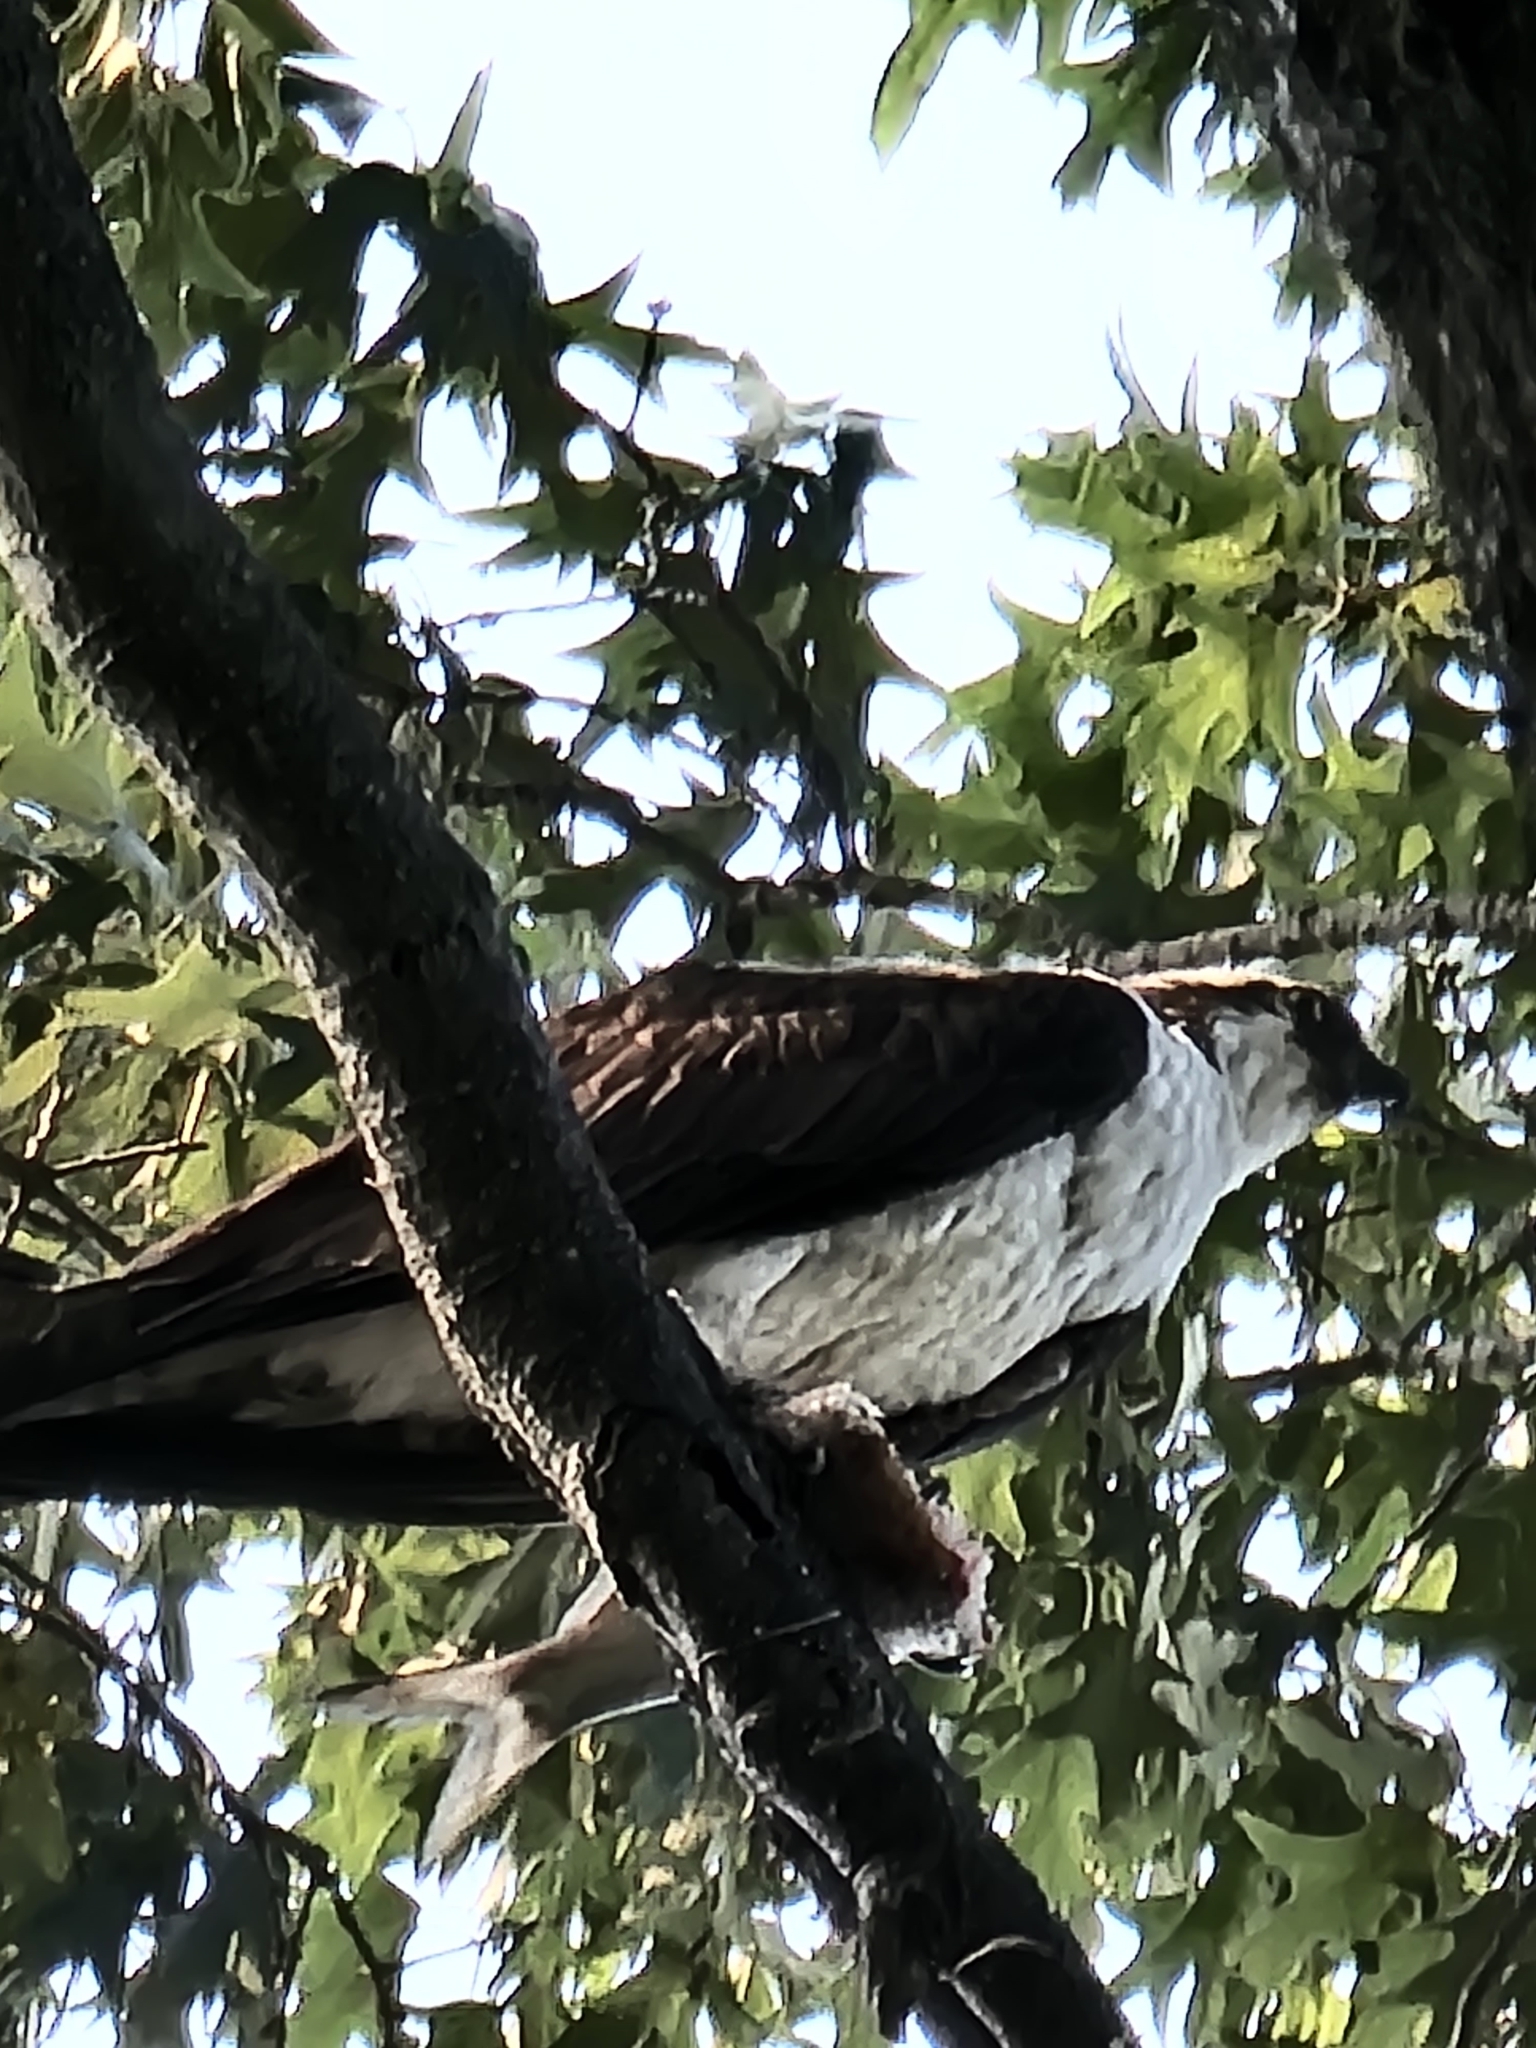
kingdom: Animalia
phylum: Chordata
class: Aves
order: Accipitriformes
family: Pandionidae
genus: Pandion
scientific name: Pandion haliaetus
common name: Osprey
